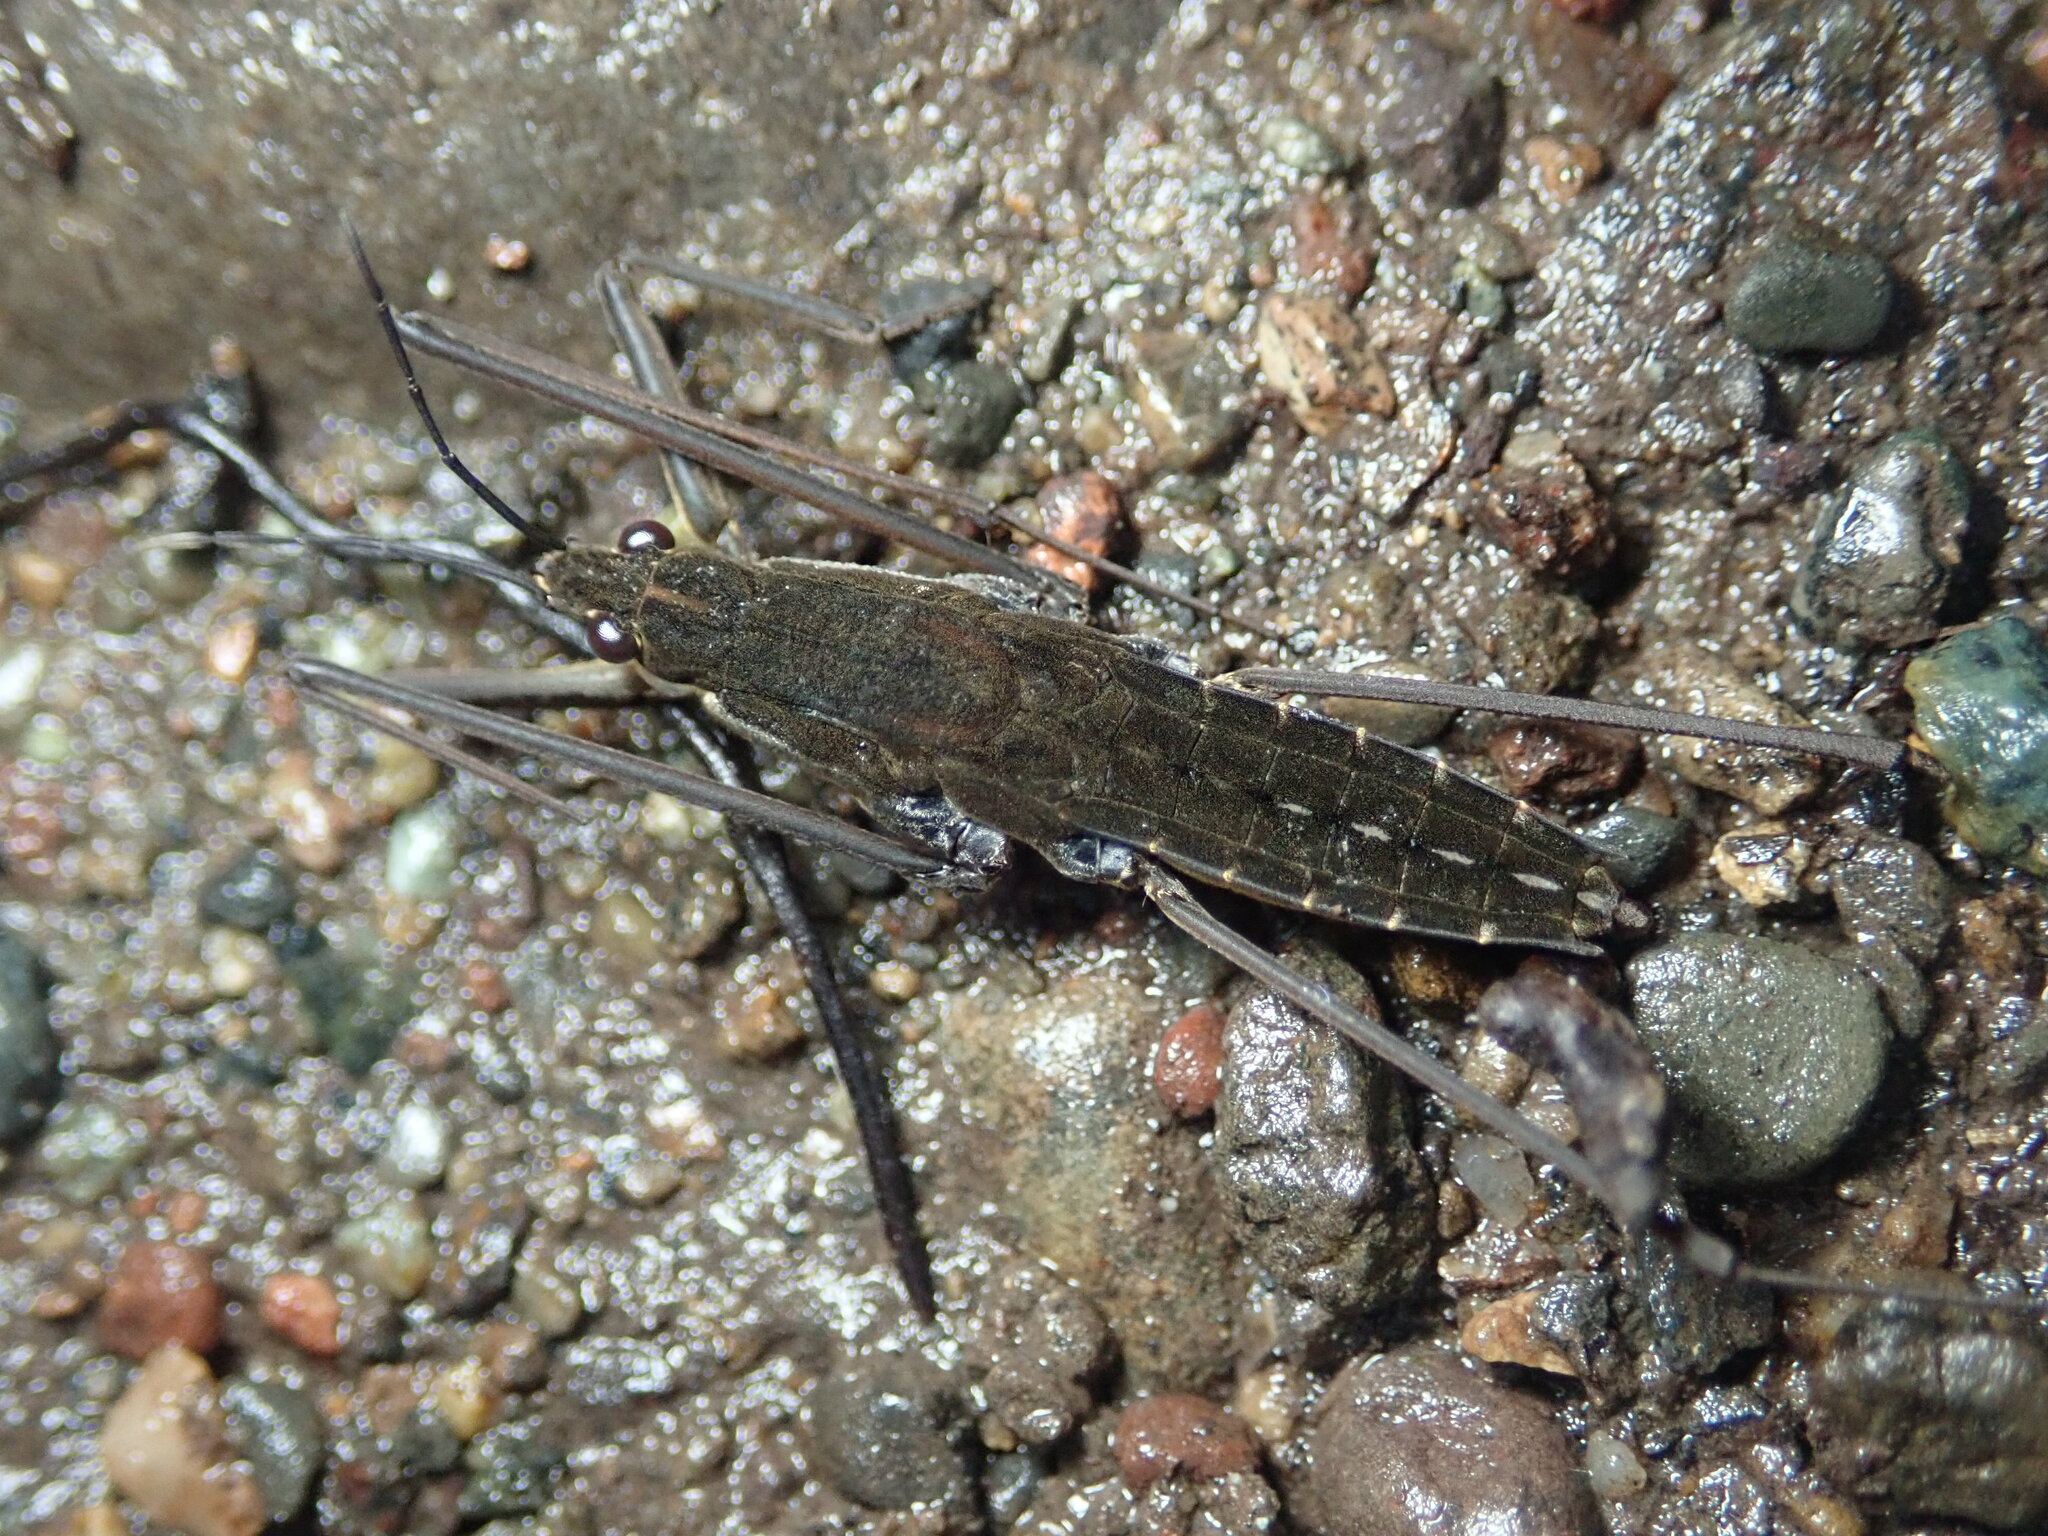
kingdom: Animalia
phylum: Arthropoda
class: Insecta
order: Hemiptera
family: Gerridae
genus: Aquarius
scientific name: Aquarius remigis
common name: Common water strider
